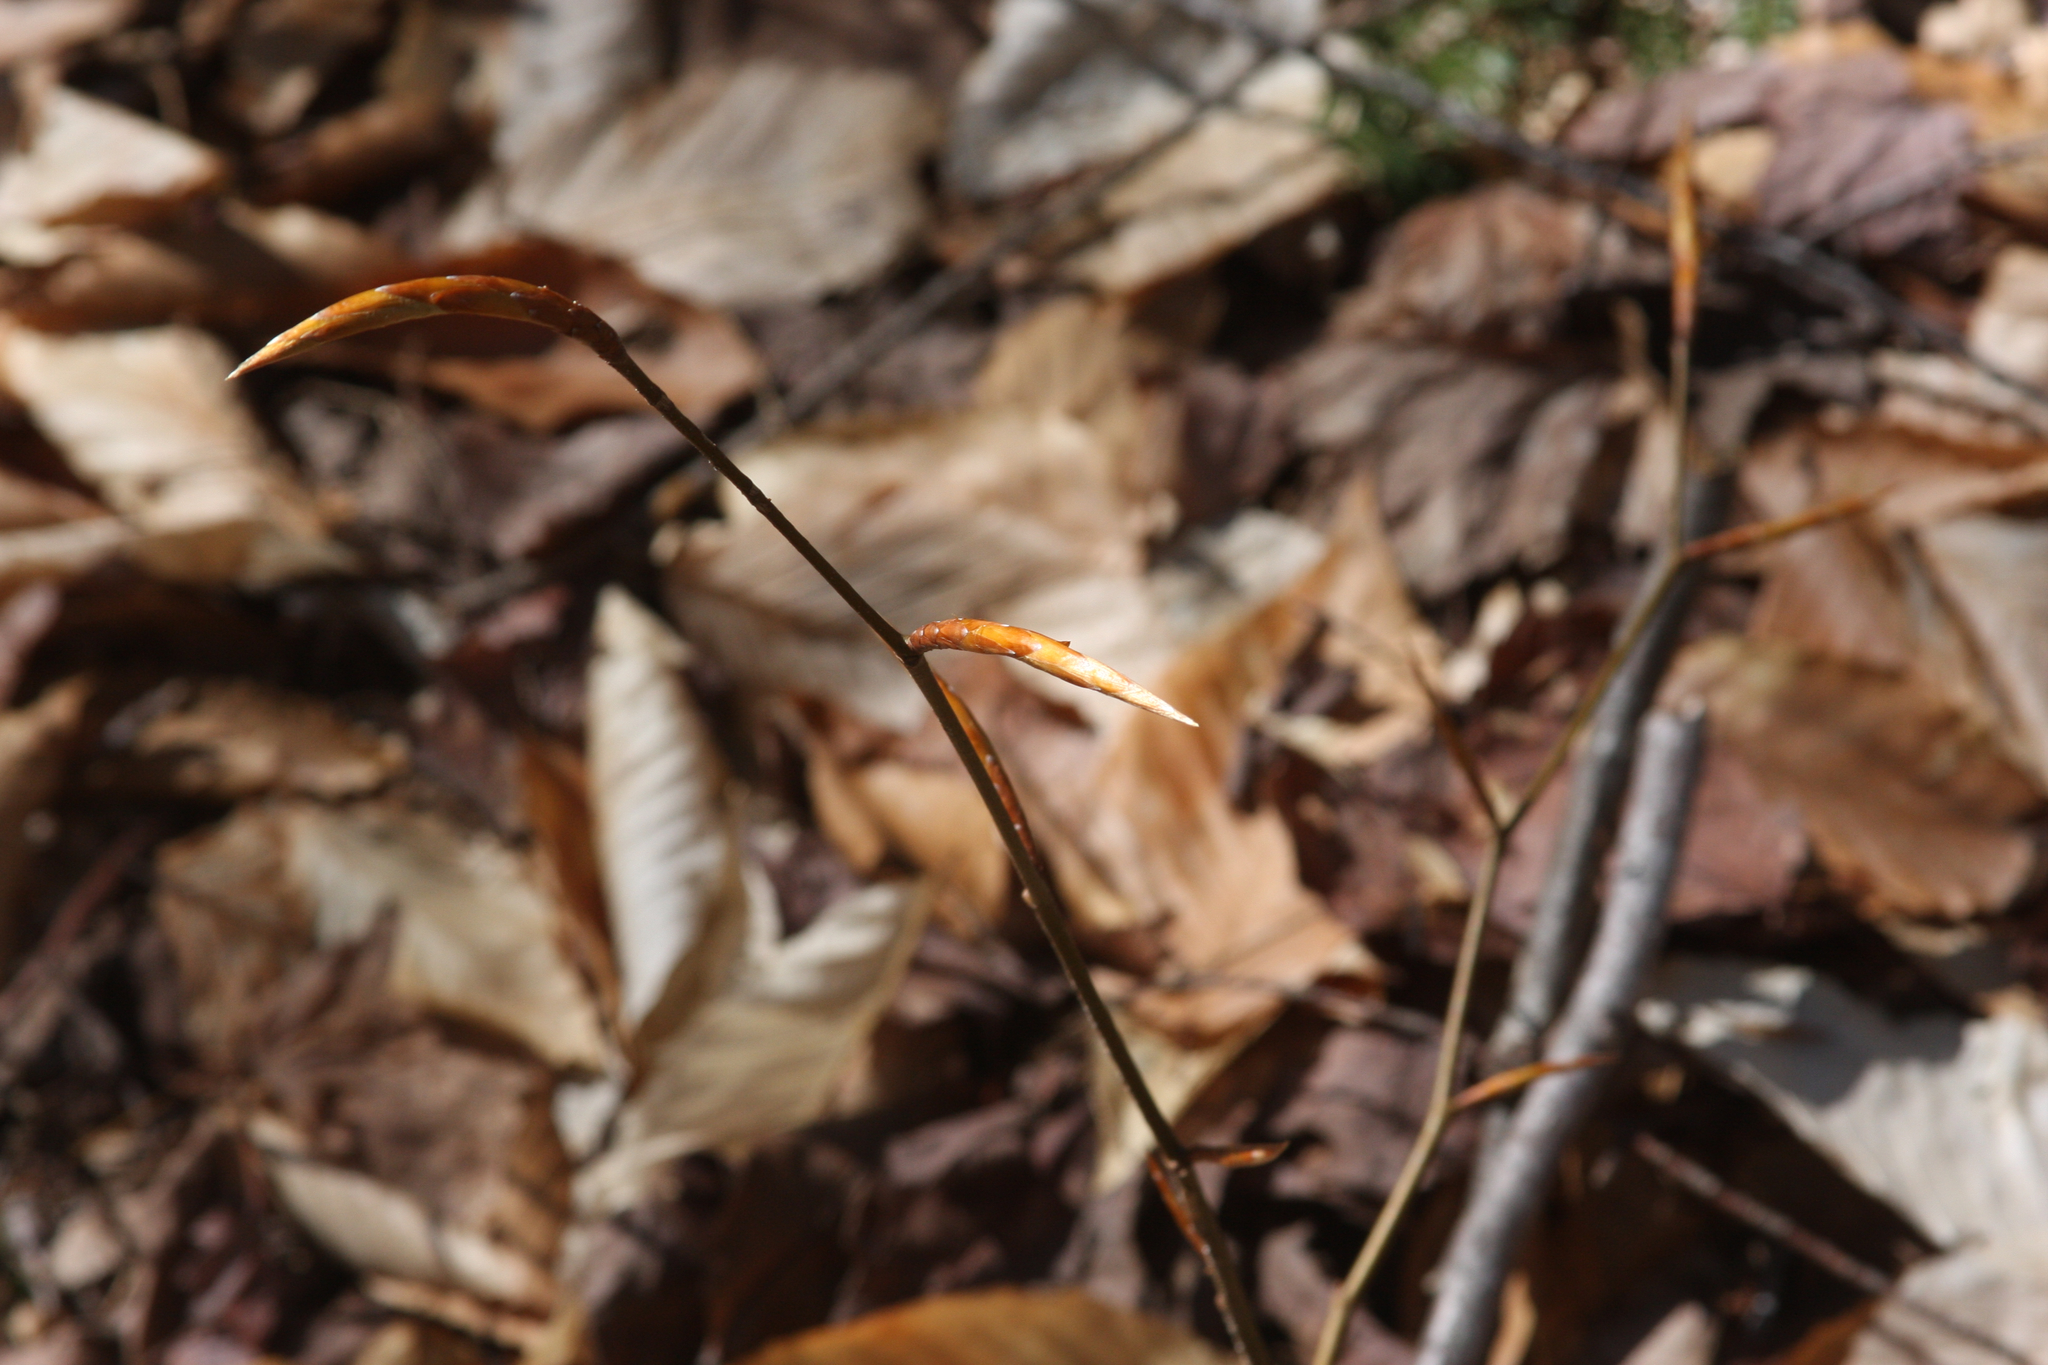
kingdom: Plantae
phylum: Tracheophyta
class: Magnoliopsida
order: Fagales
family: Fagaceae
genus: Fagus
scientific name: Fagus grandifolia
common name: American beech
